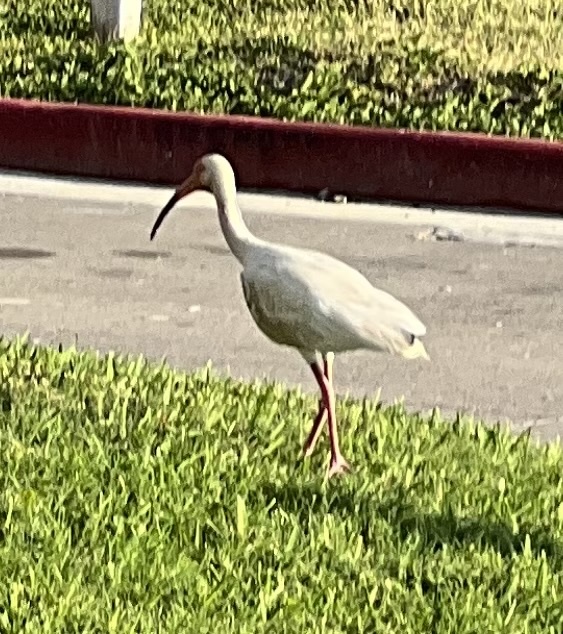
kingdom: Animalia
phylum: Chordata
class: Aves
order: Pelecaniformes
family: Threskiornithidae
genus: Eudocimus
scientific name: Eudocimus albus
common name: White ibis
